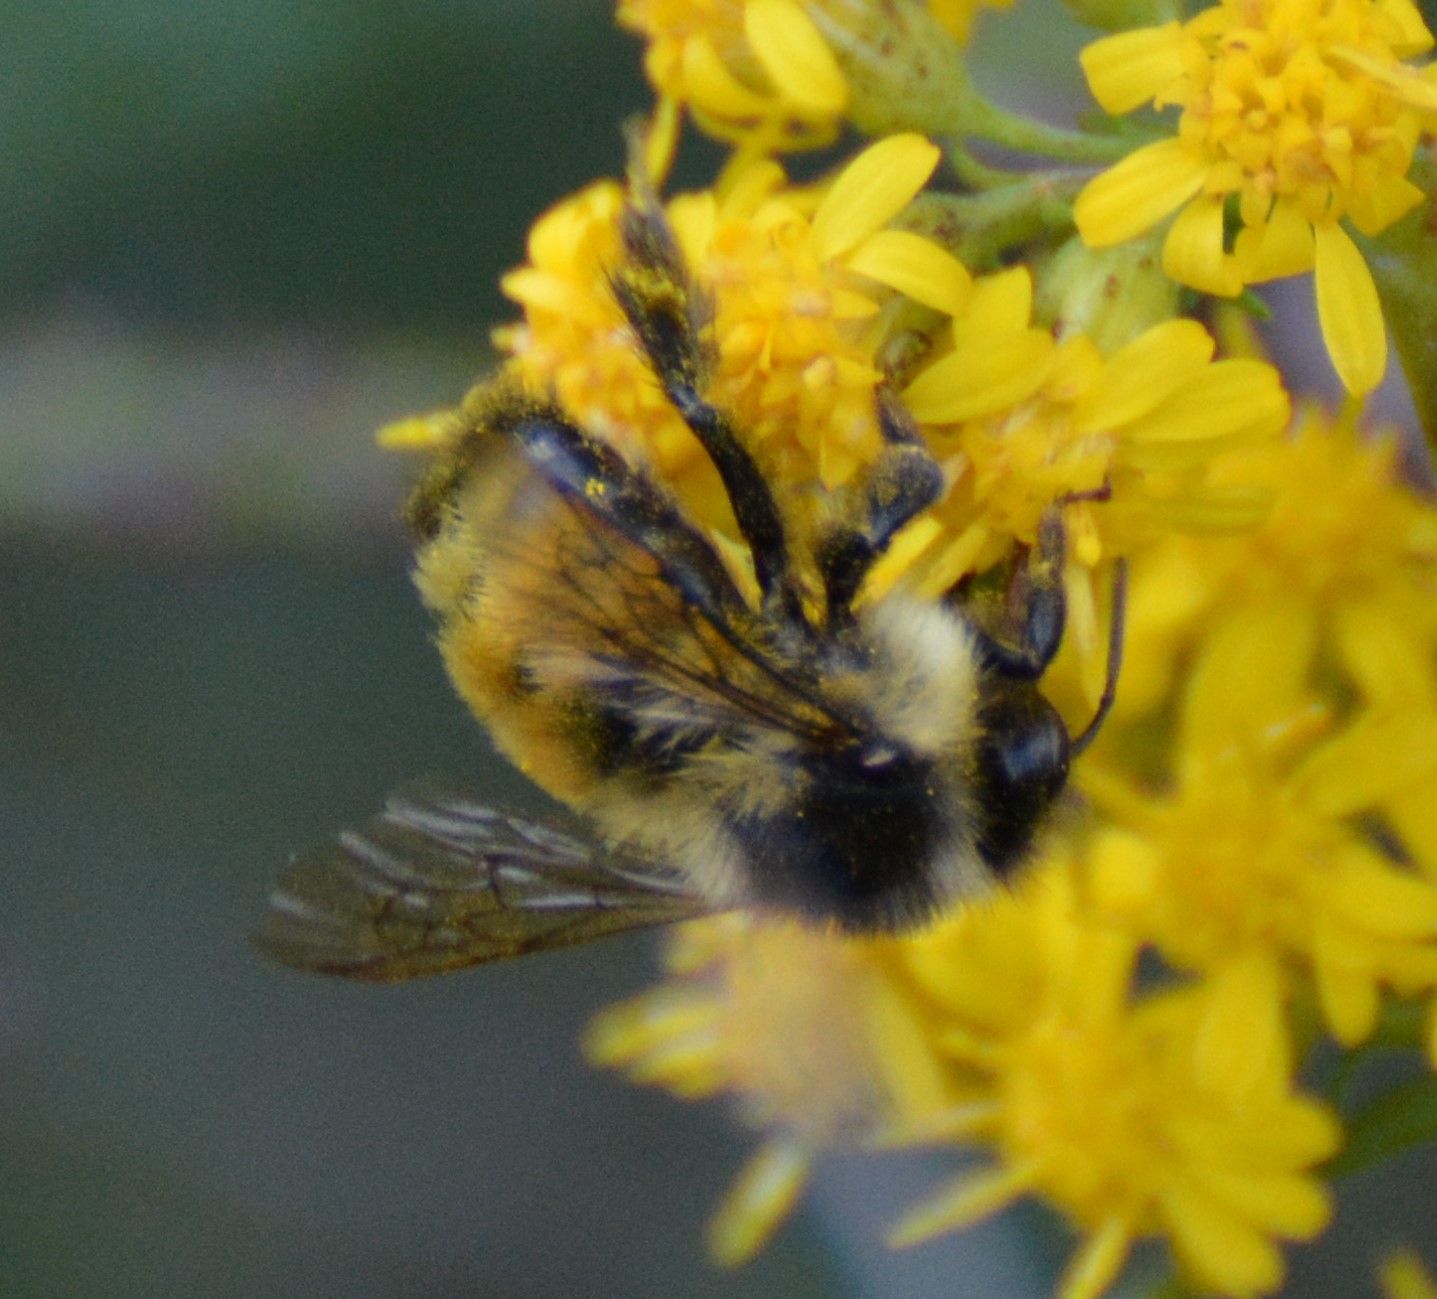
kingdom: Animalia
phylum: Arthropoda
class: Insecta
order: Hymenoptera
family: Apidae
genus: Bombus
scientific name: Bombus ternarius
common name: Tri-colored bumble bee
